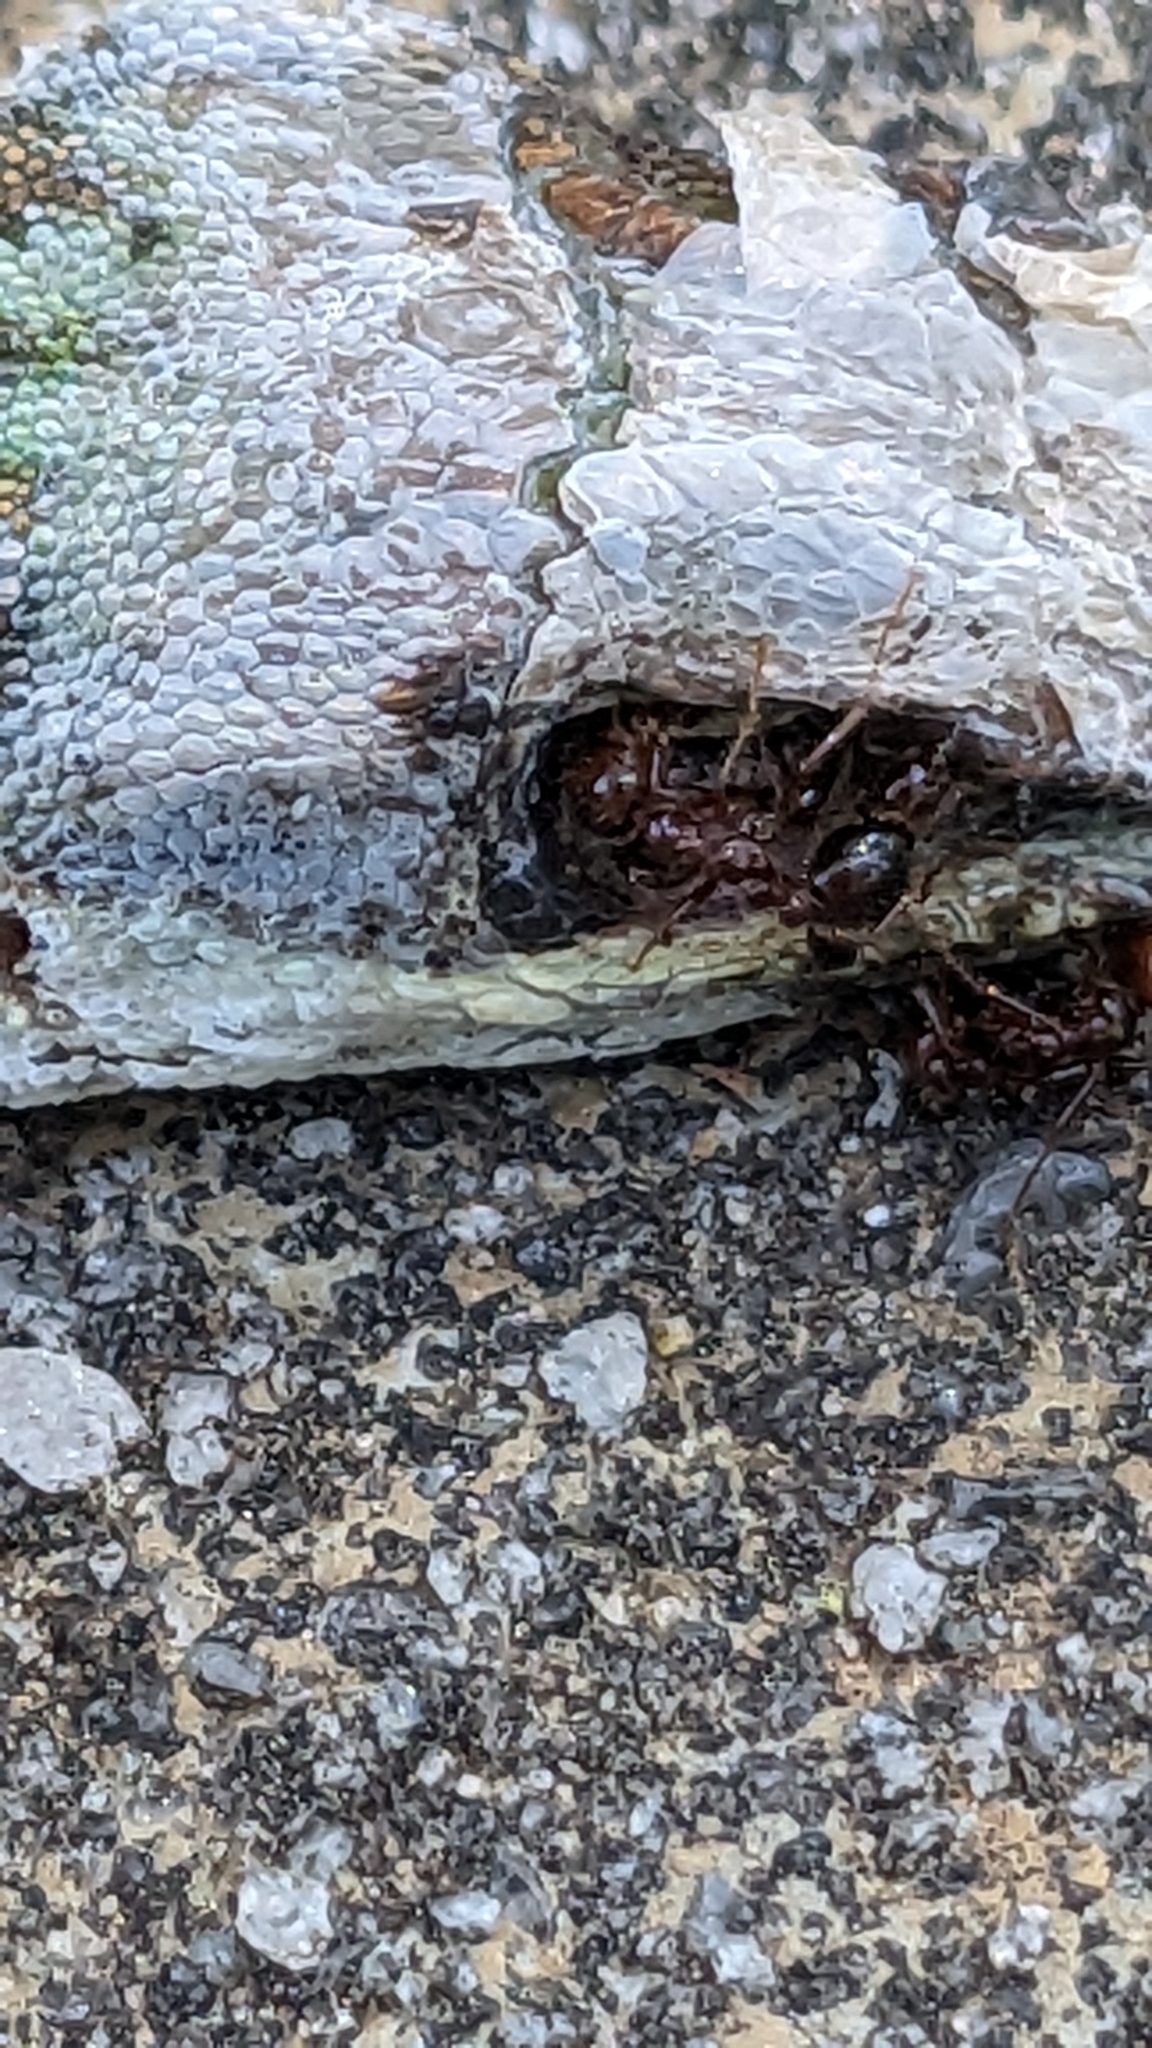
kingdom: Animalia
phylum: Arthropoda
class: Insecta
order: Hymenoptera
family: Formicidae
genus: Solenopsis
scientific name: Solenopsis invicta
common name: Red imported fire ant
